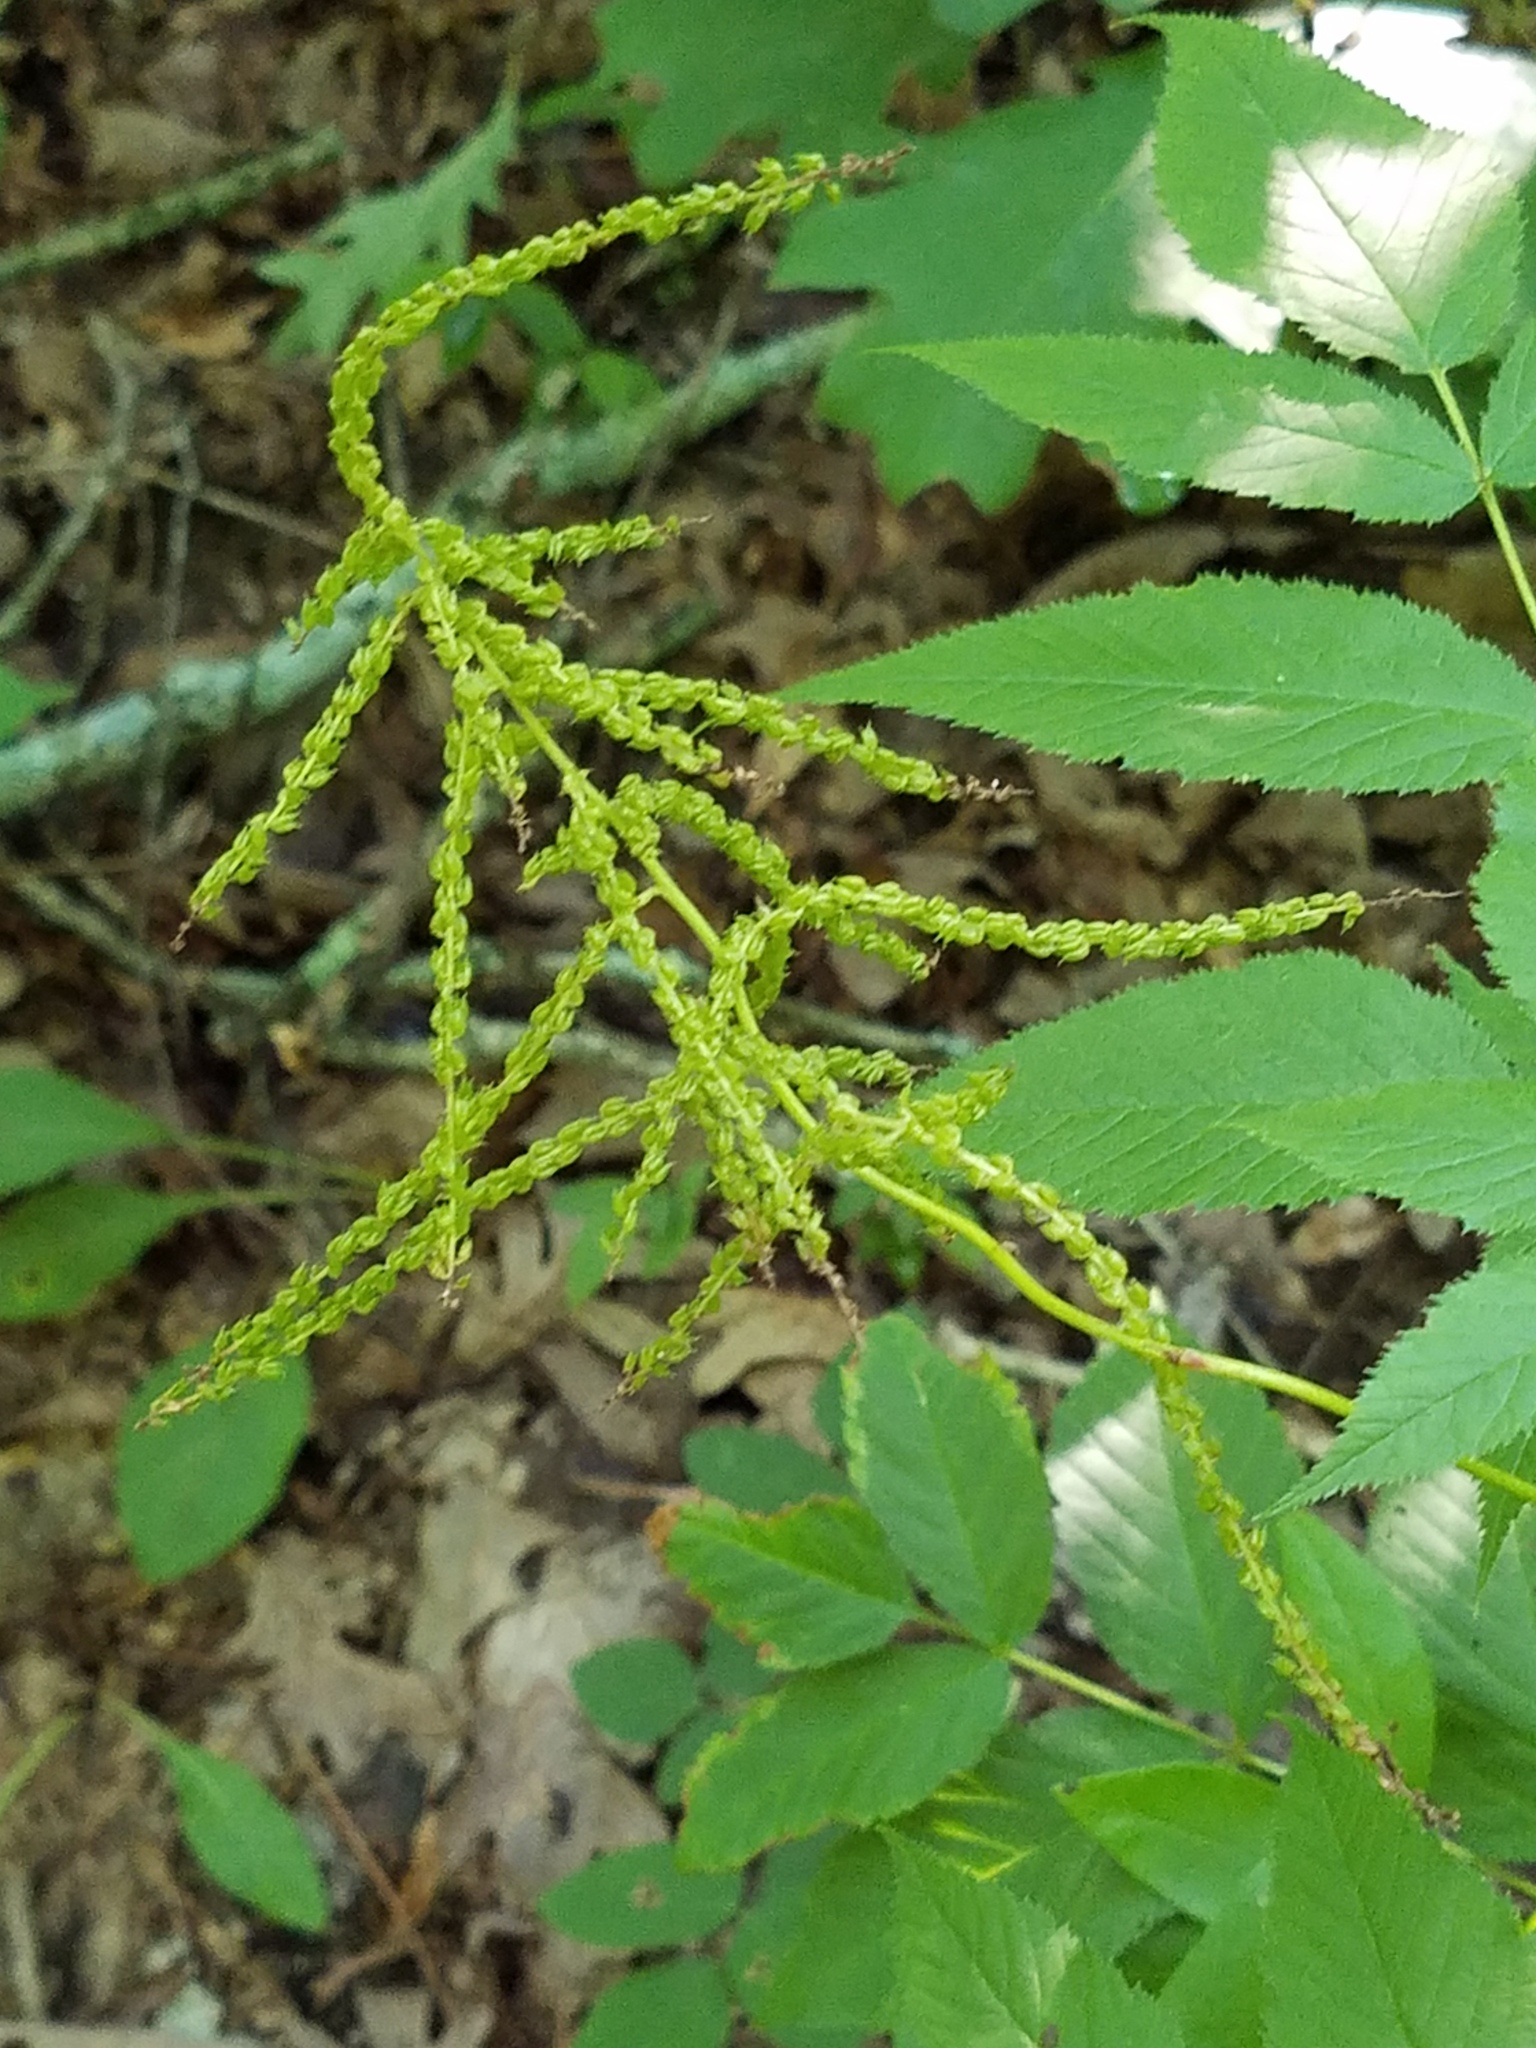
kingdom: Plantae
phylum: Tracheophyta
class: Magnoliopsida
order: Rosales
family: Rosaceae
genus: Aruncus
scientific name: Aruncus dioicus
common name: Buck's-beard
